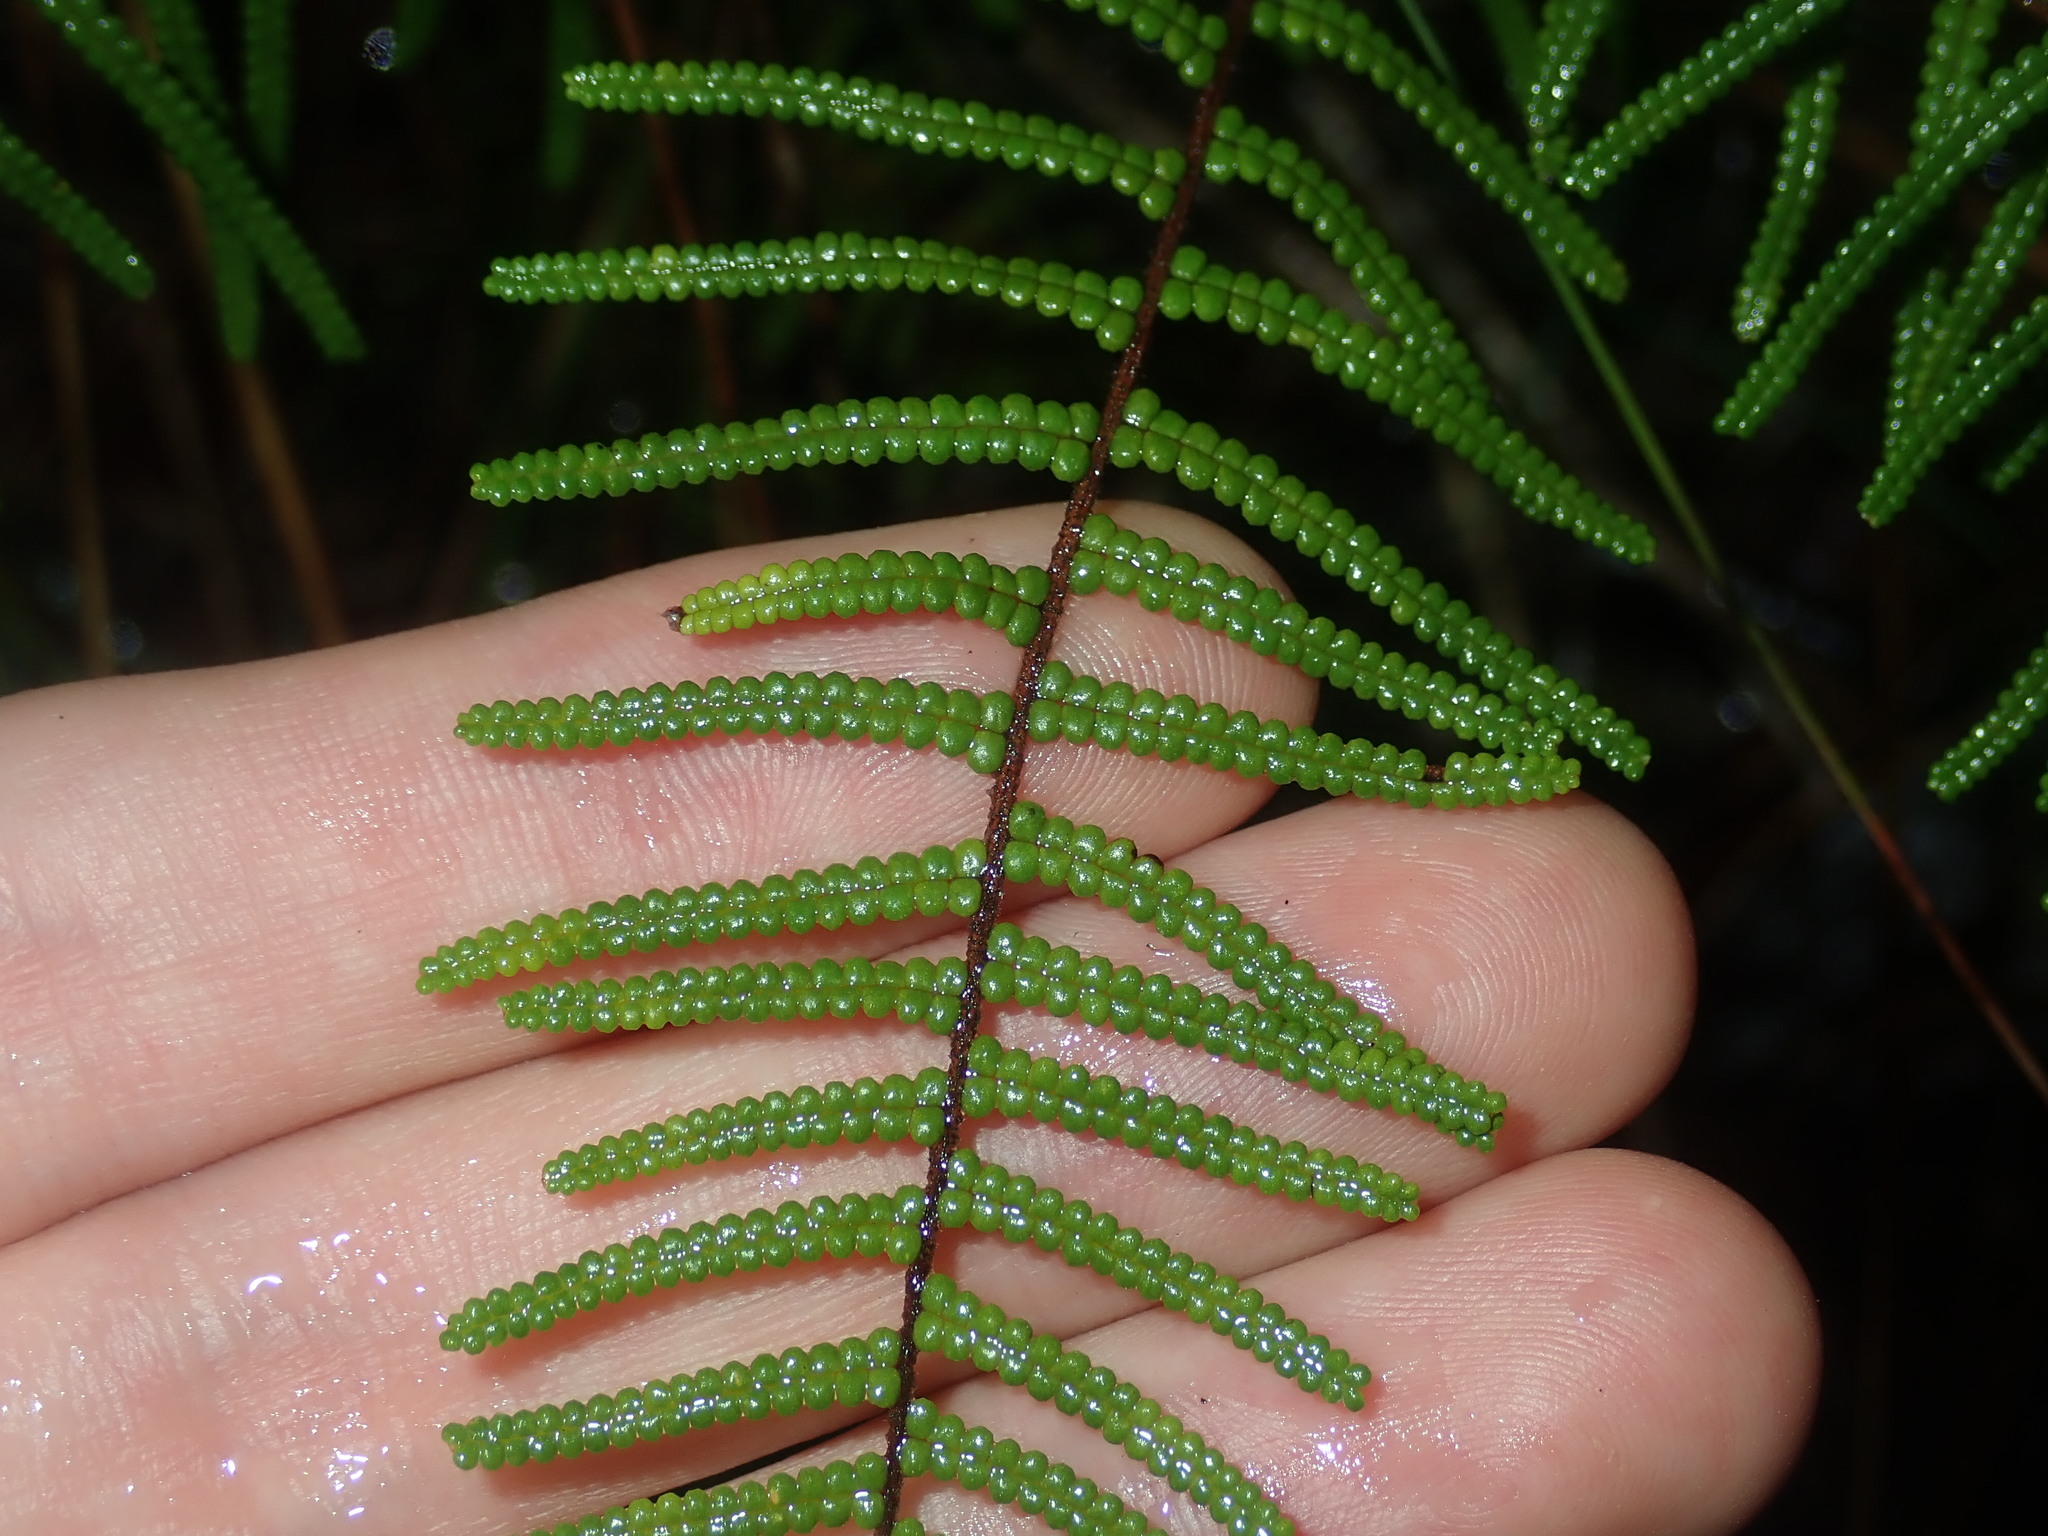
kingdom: Plantae
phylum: Tracheophyta
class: Polypodiopsida
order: Gleicheniales
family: Gleicheniaceae
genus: Gleichenia
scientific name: Gleichenia dicarpa
